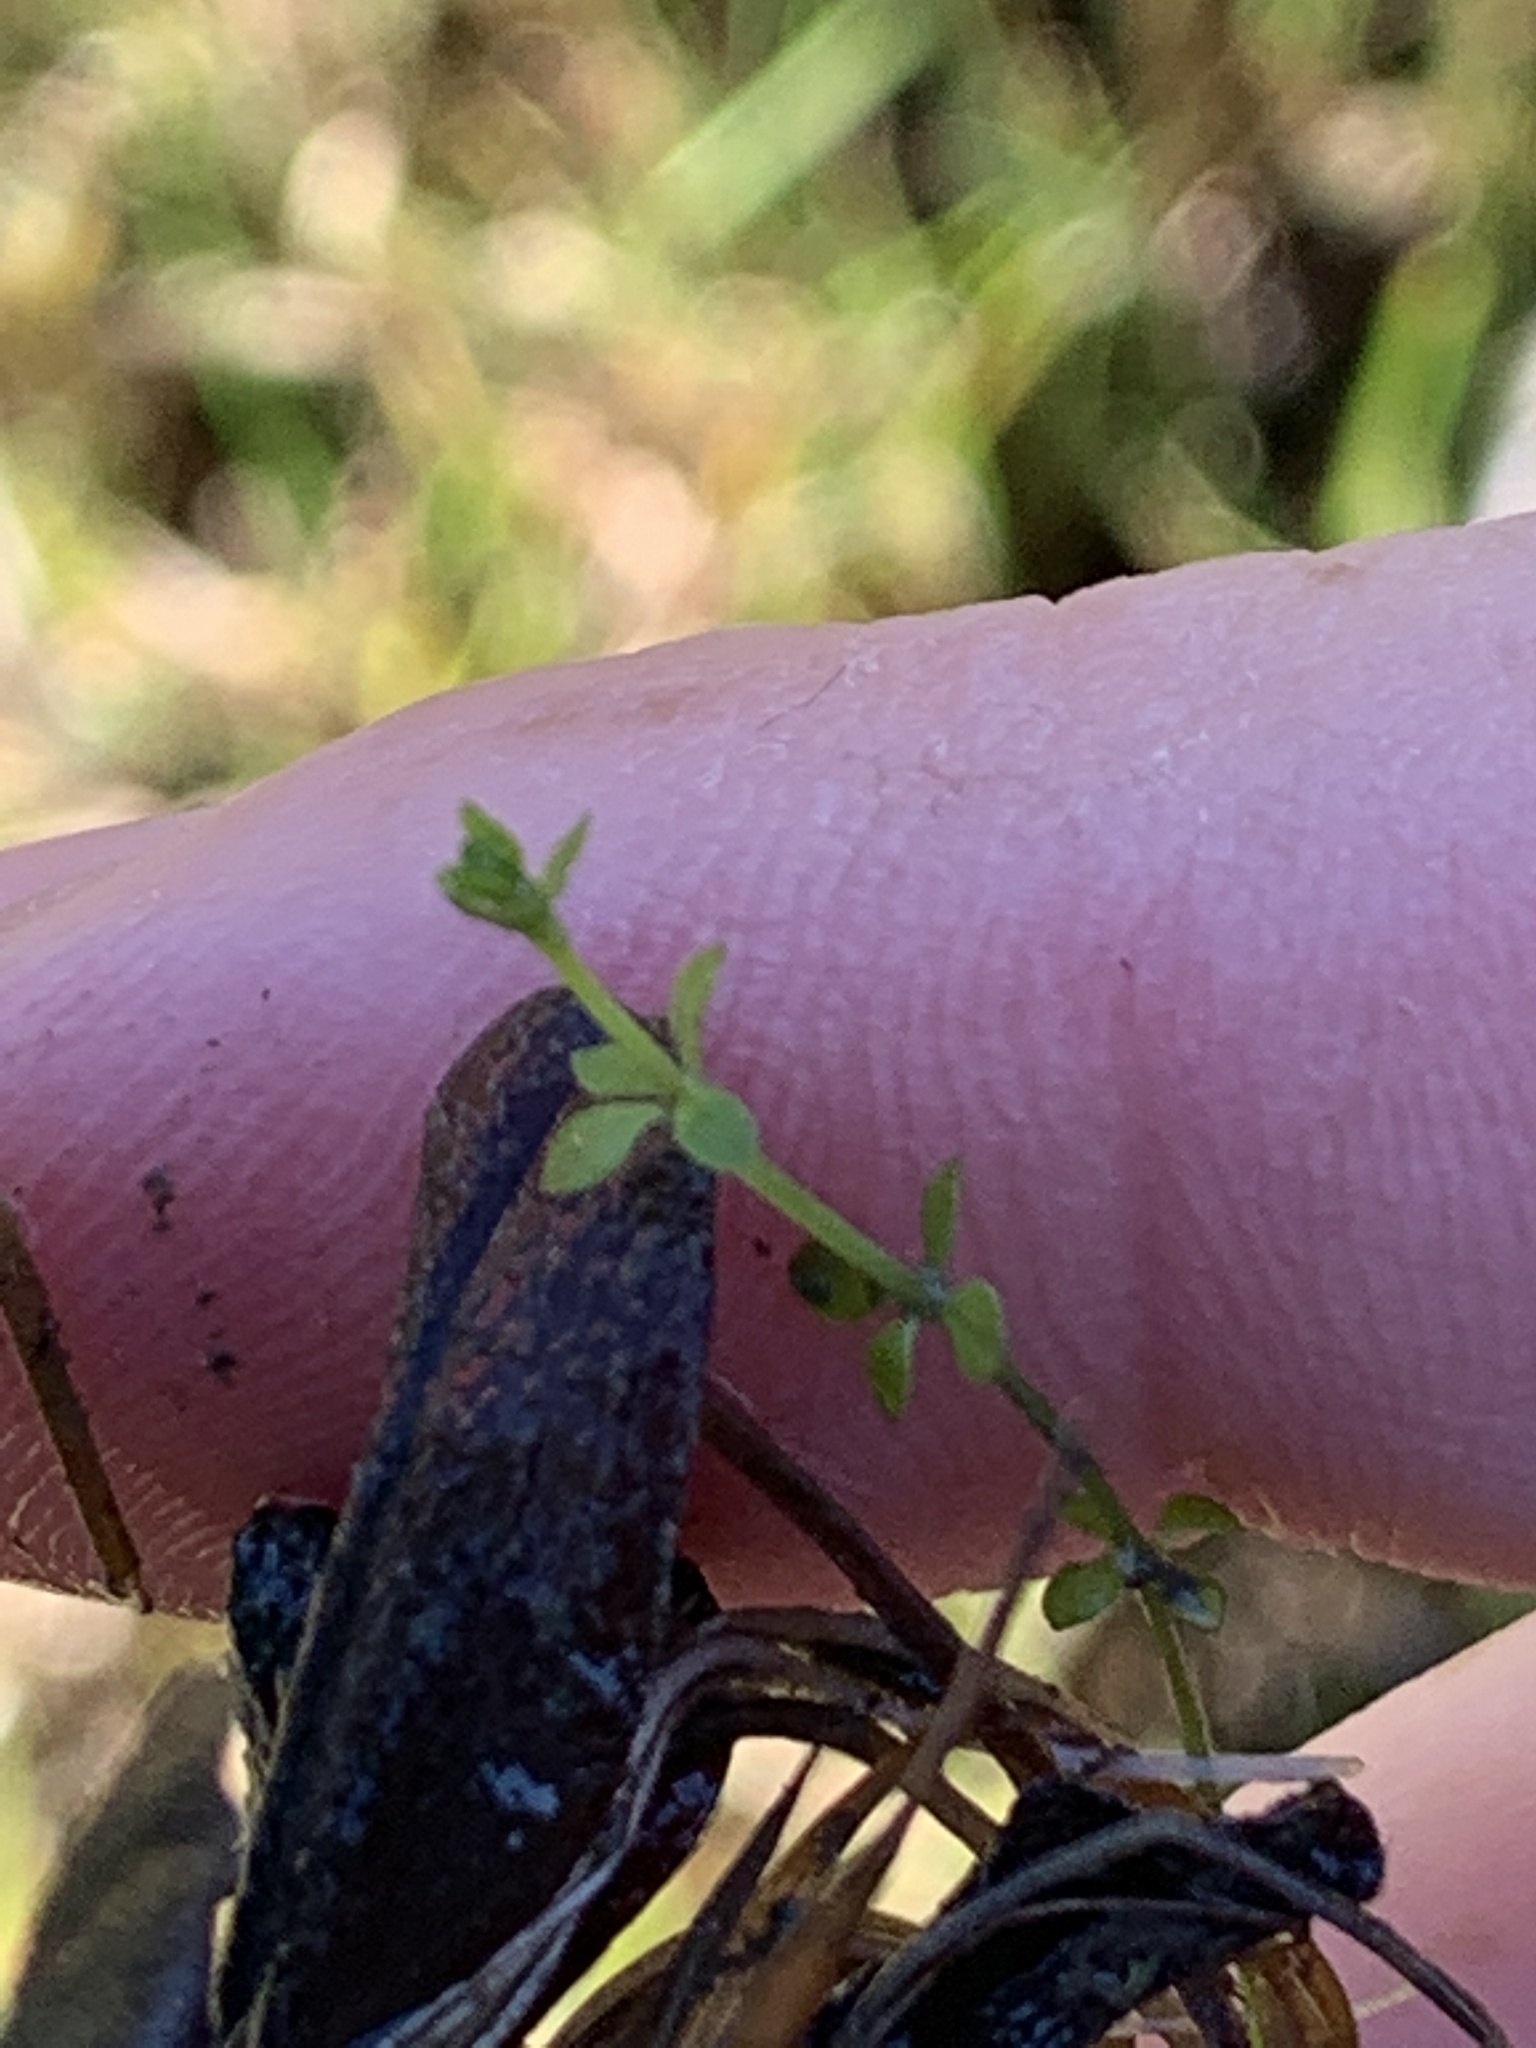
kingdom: Plantae
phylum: Tracheophyta
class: Magnoliopsida
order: Gentianales
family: Rubiaceae
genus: Galium
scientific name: Galium palustre
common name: Common marsh-bedstraw
